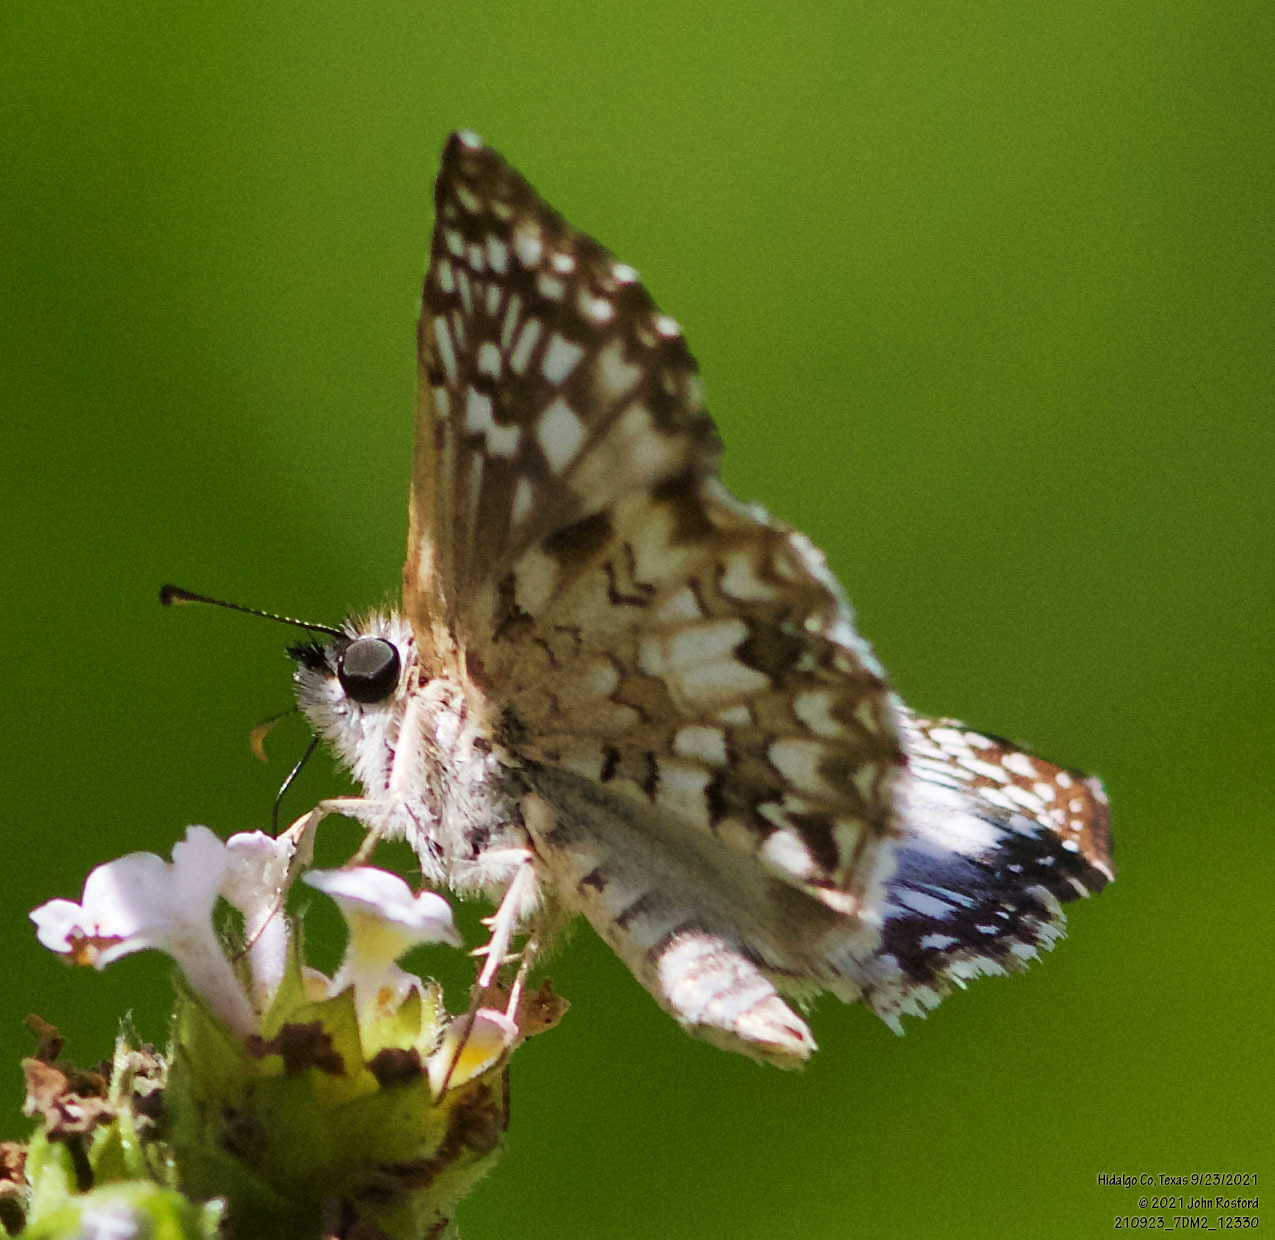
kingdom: Animalia
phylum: Arthropoda
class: Insecta
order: Lepidoptera
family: Hesperiidae
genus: Pyrgus
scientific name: Pyrgus oileus
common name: Tropical checkered-skipper
